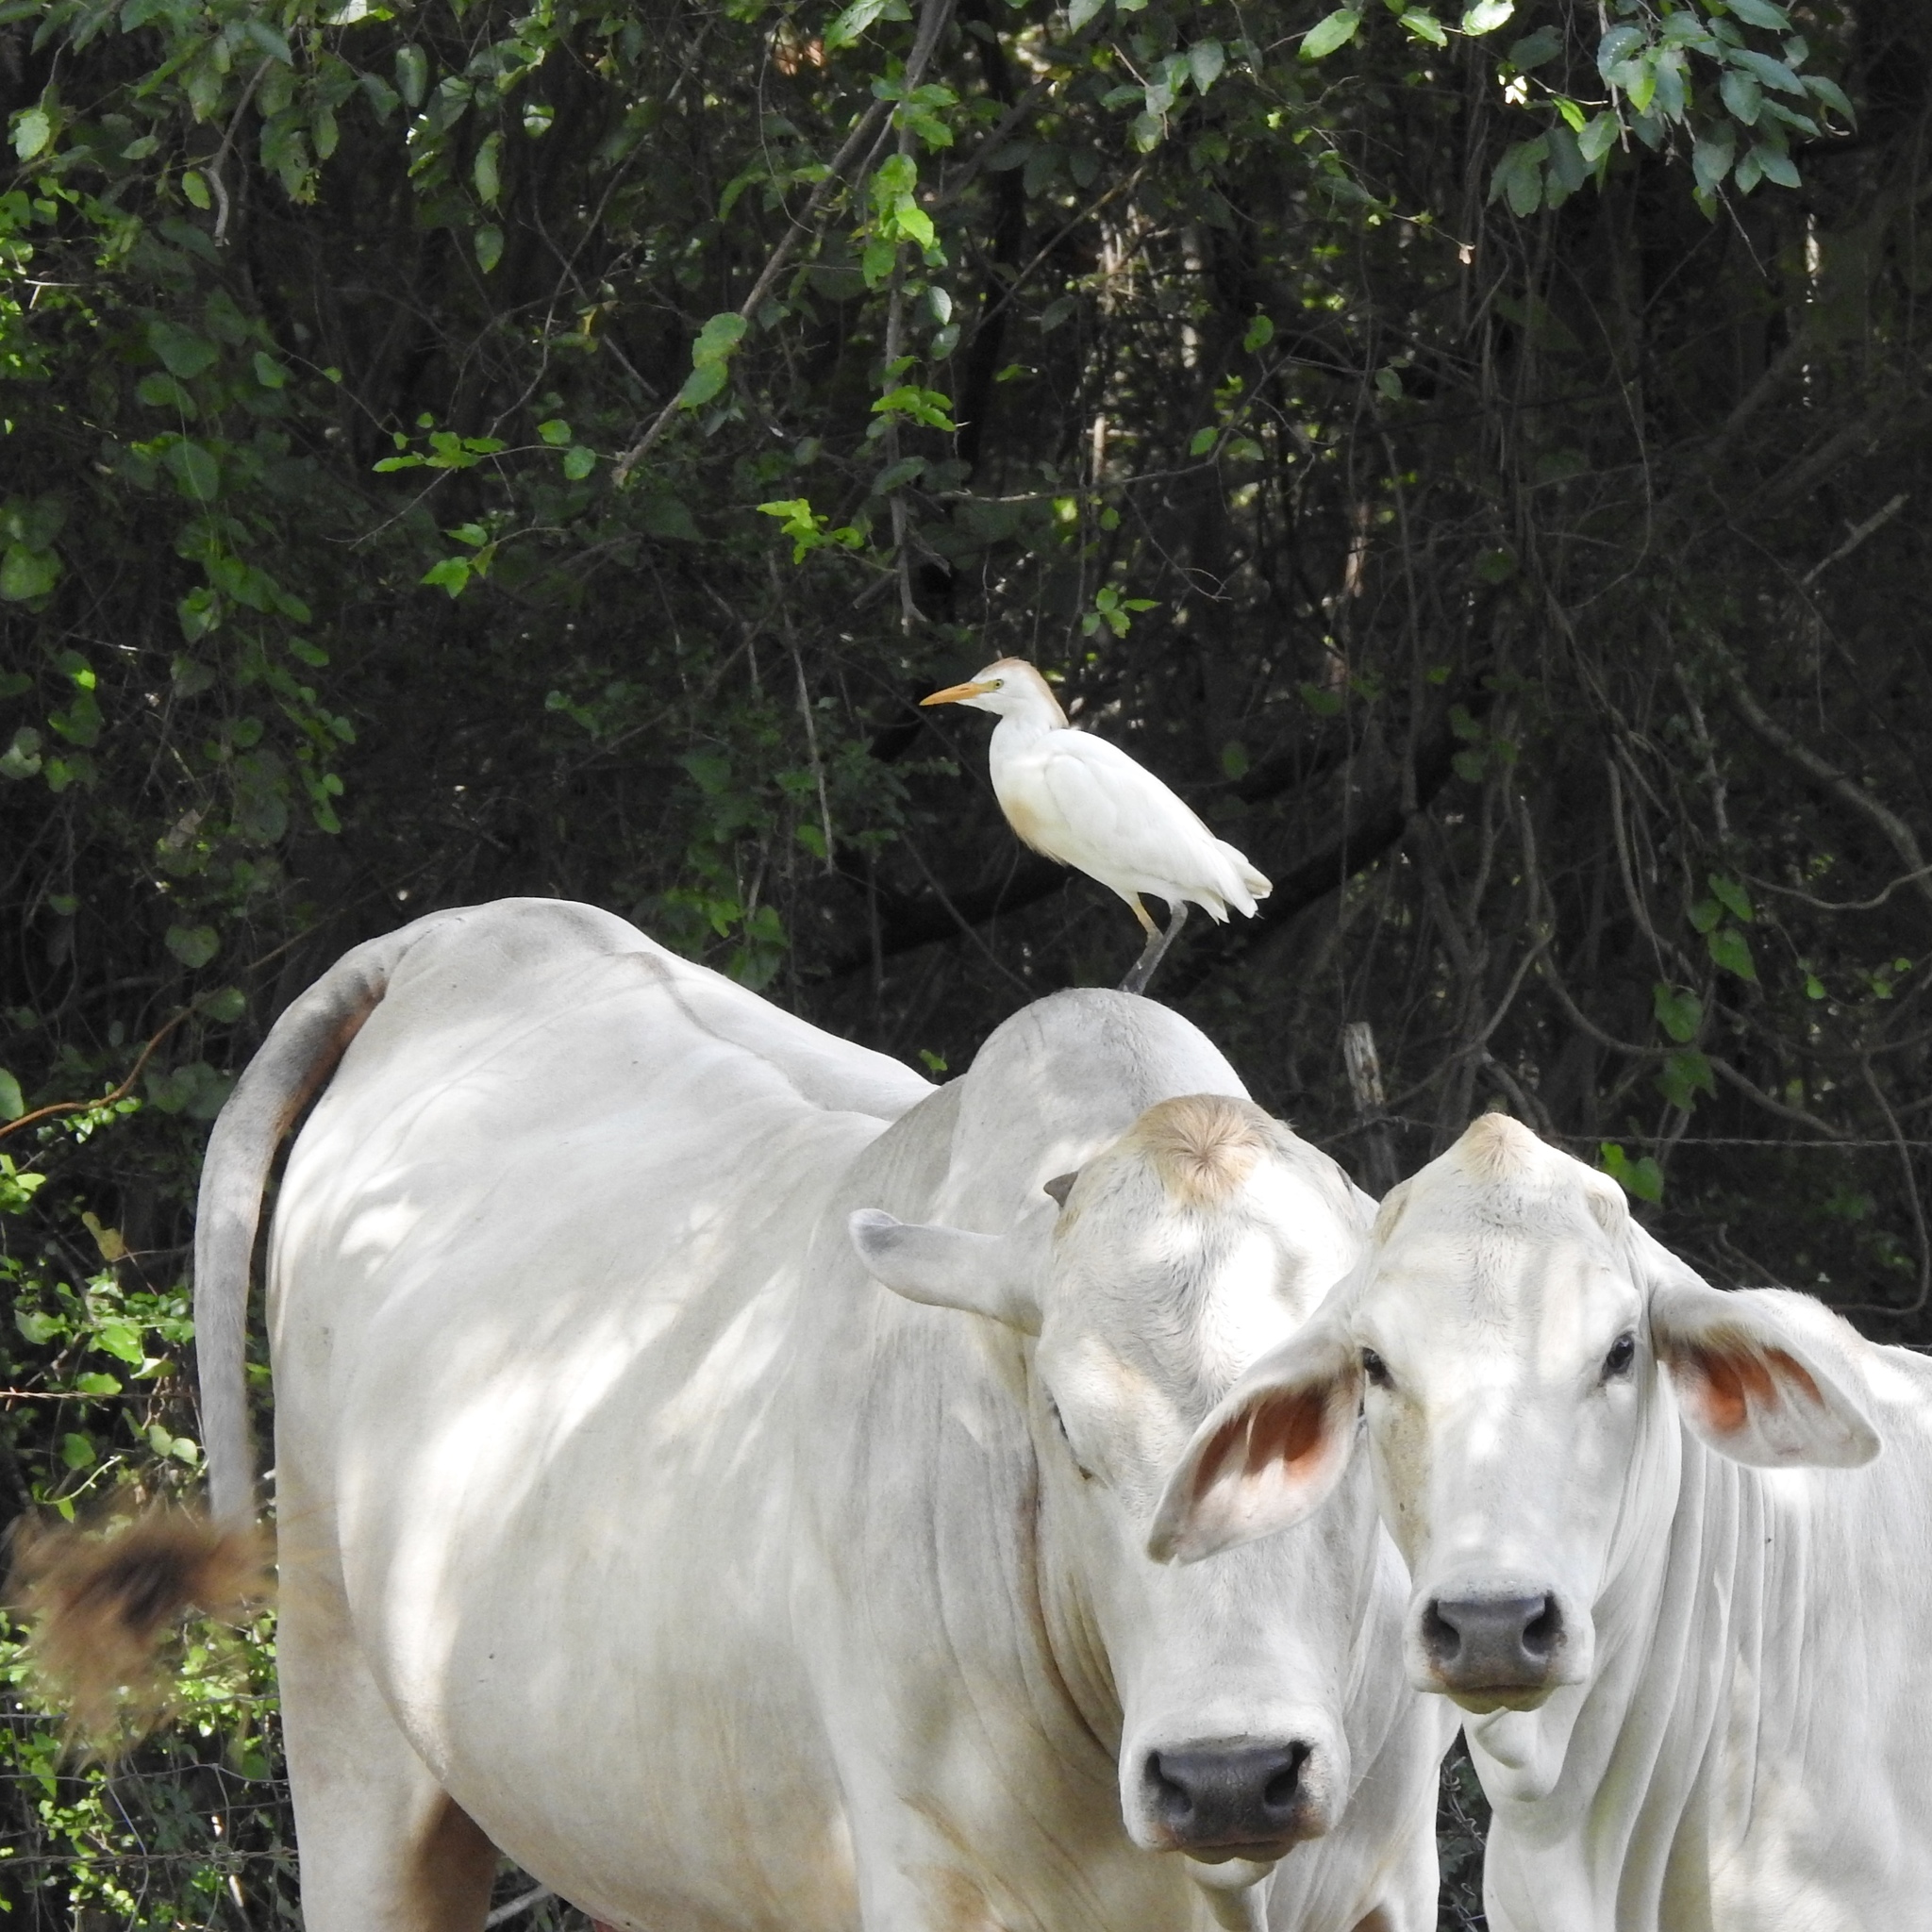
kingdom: Animalia
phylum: Chordata
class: Aves
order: Pelecaniformes
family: Ardeidae
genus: Bubulcus
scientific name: Bubulcus ibis
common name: Cattle egret
